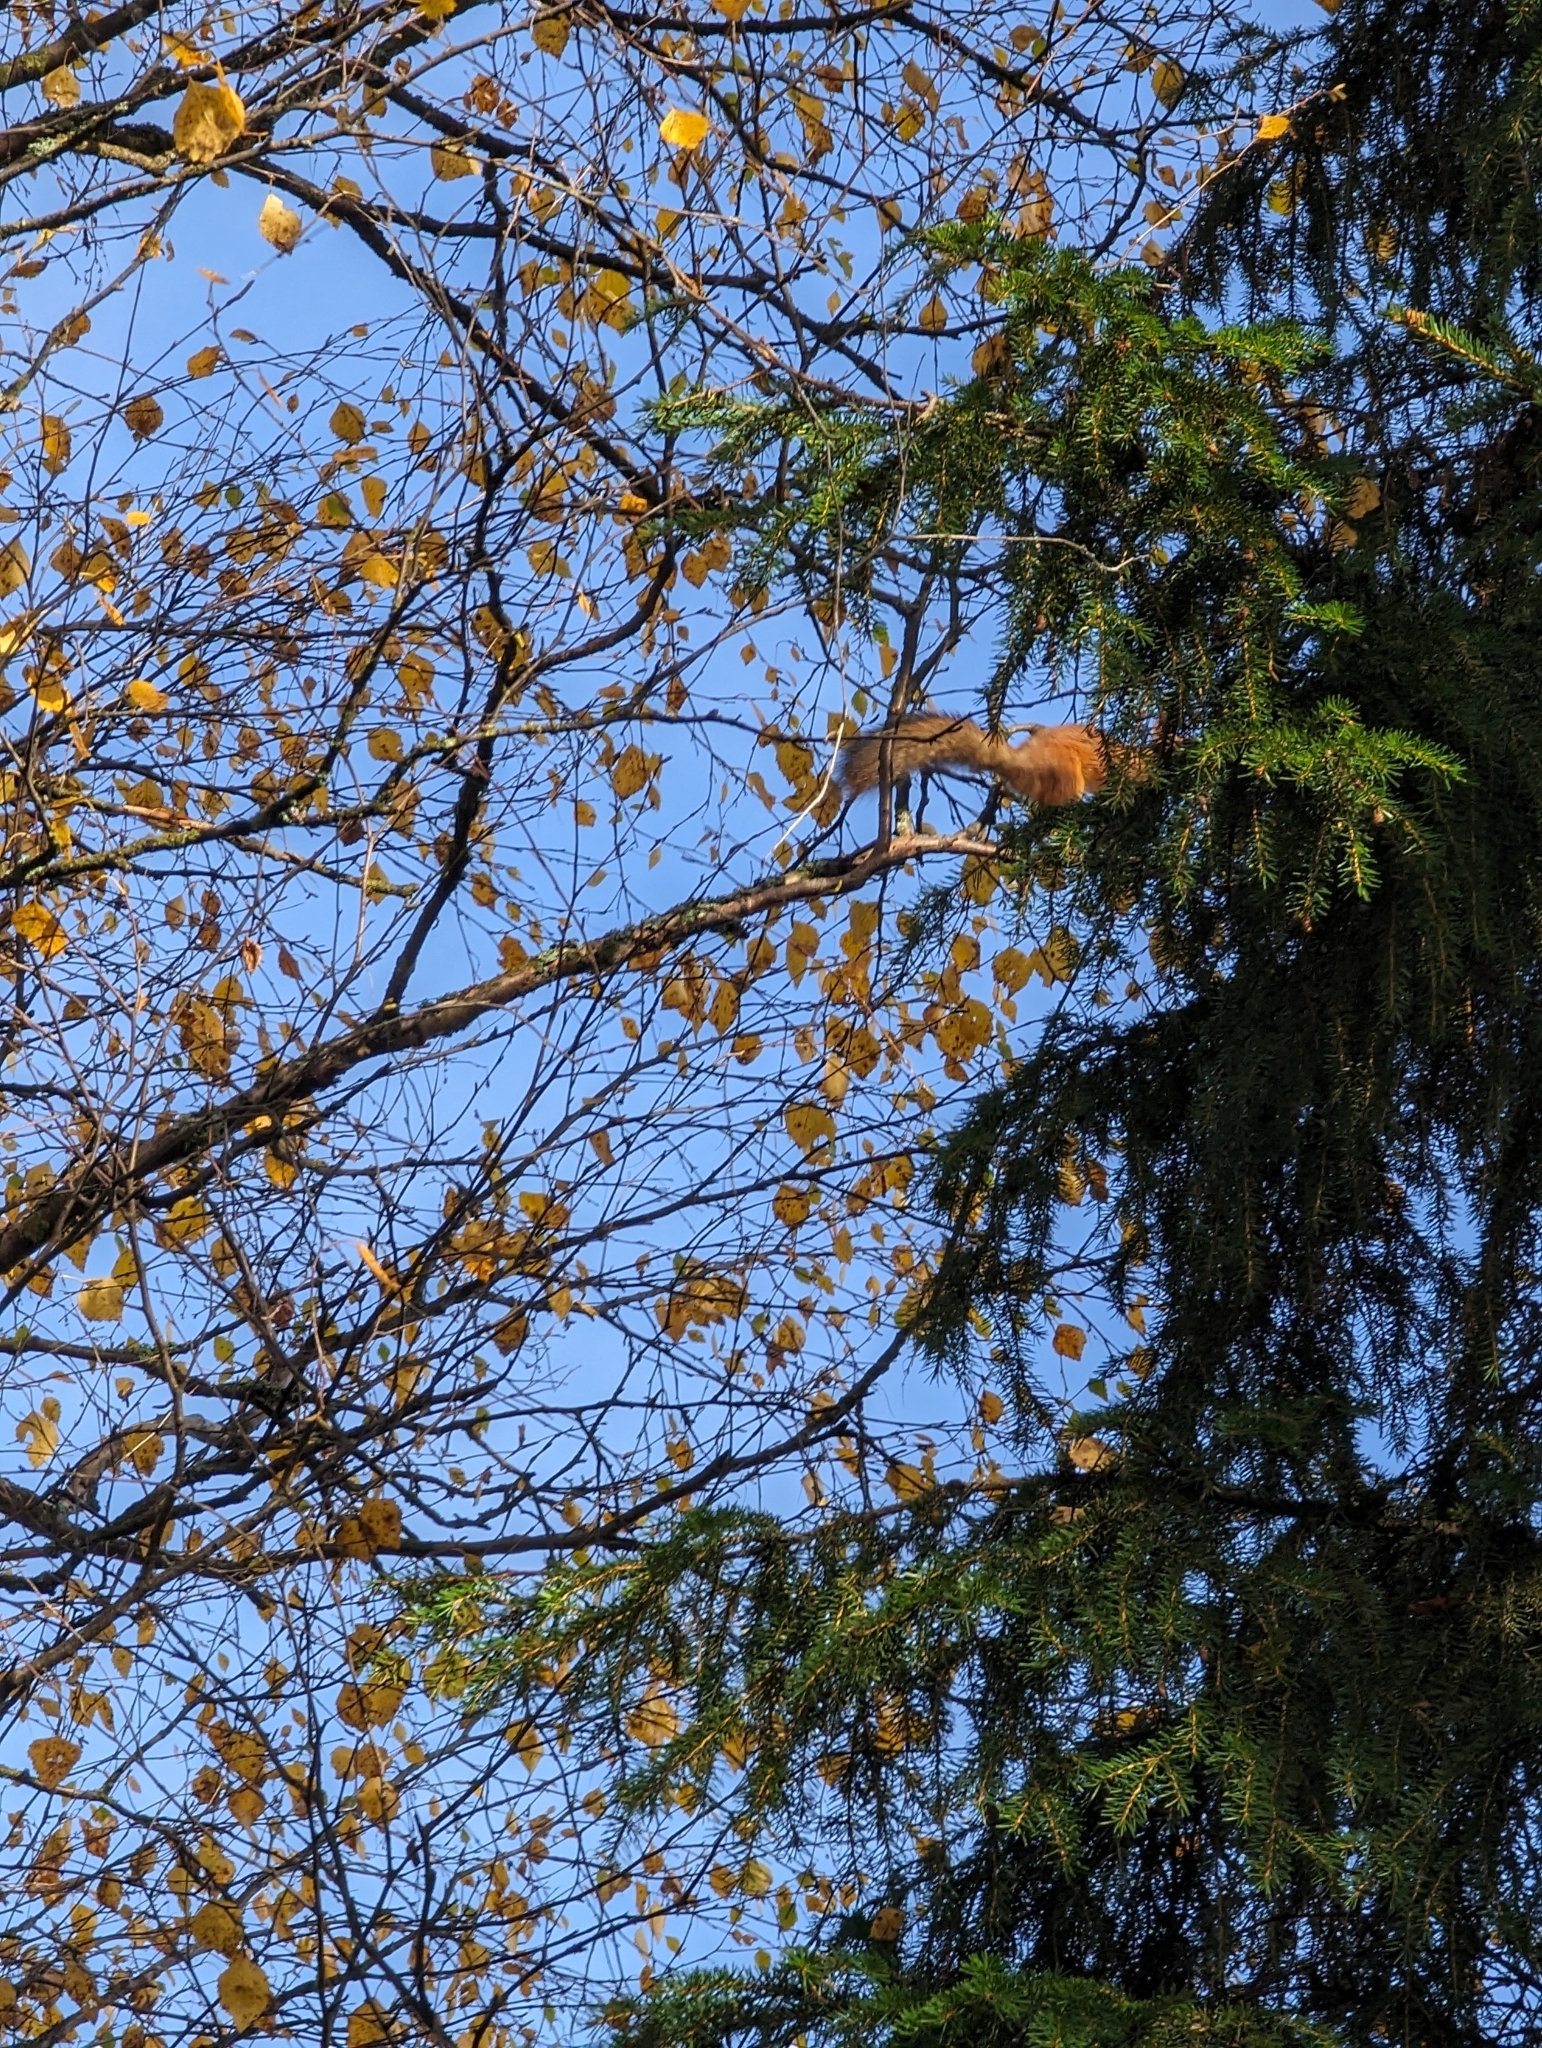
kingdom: Animalia
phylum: Chordata
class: Mammalia
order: Rodentia
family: Sciuridae
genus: Sciurus
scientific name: Sciurus vulgaris
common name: Eurasian red squirrel
